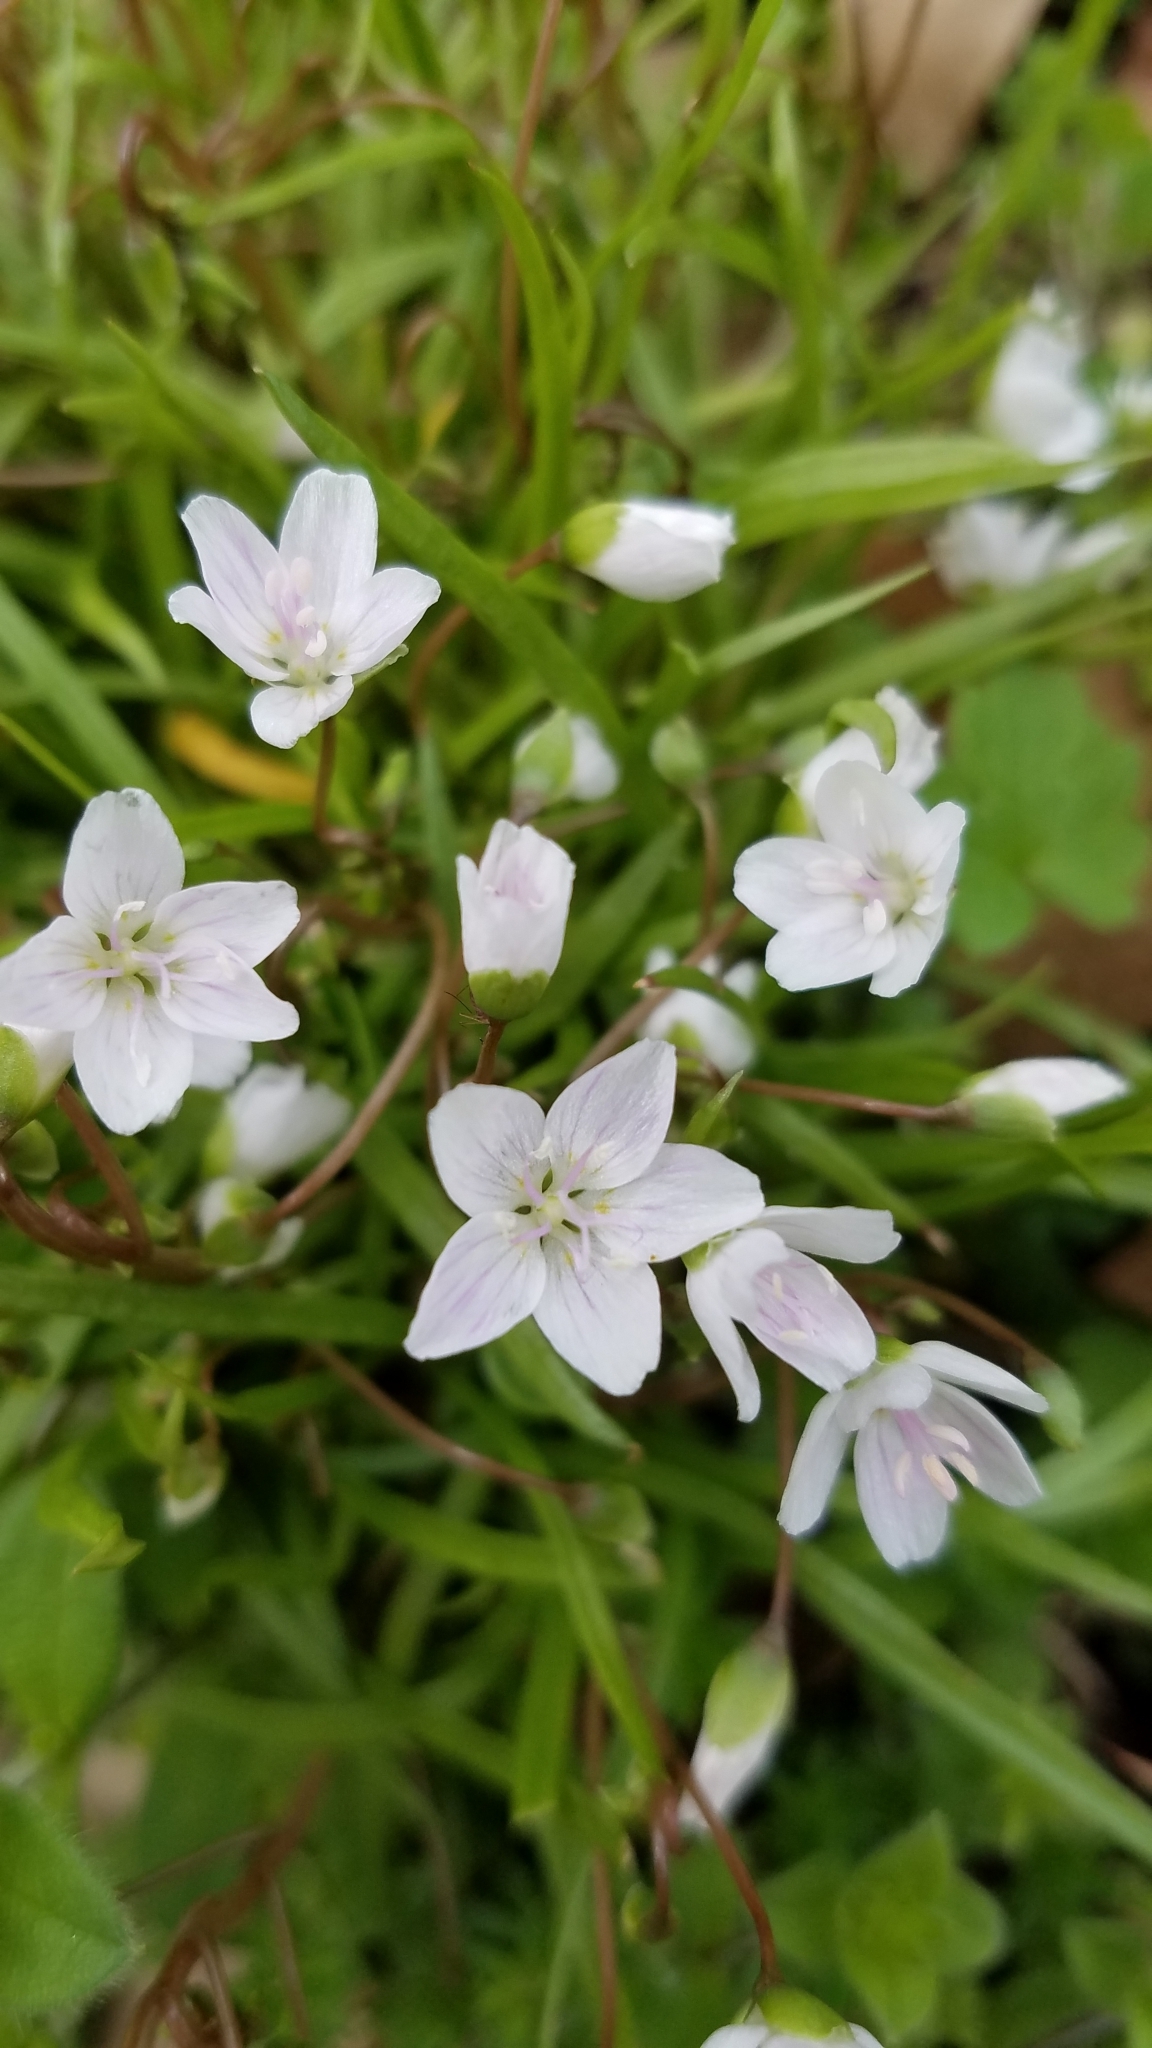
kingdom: Plantae
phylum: Tracheophyta
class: Magnoliopsida
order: Caryophyllales
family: Montiaceae
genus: Claytonia
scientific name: Claytonia virginica
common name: Virginia springbeauty
